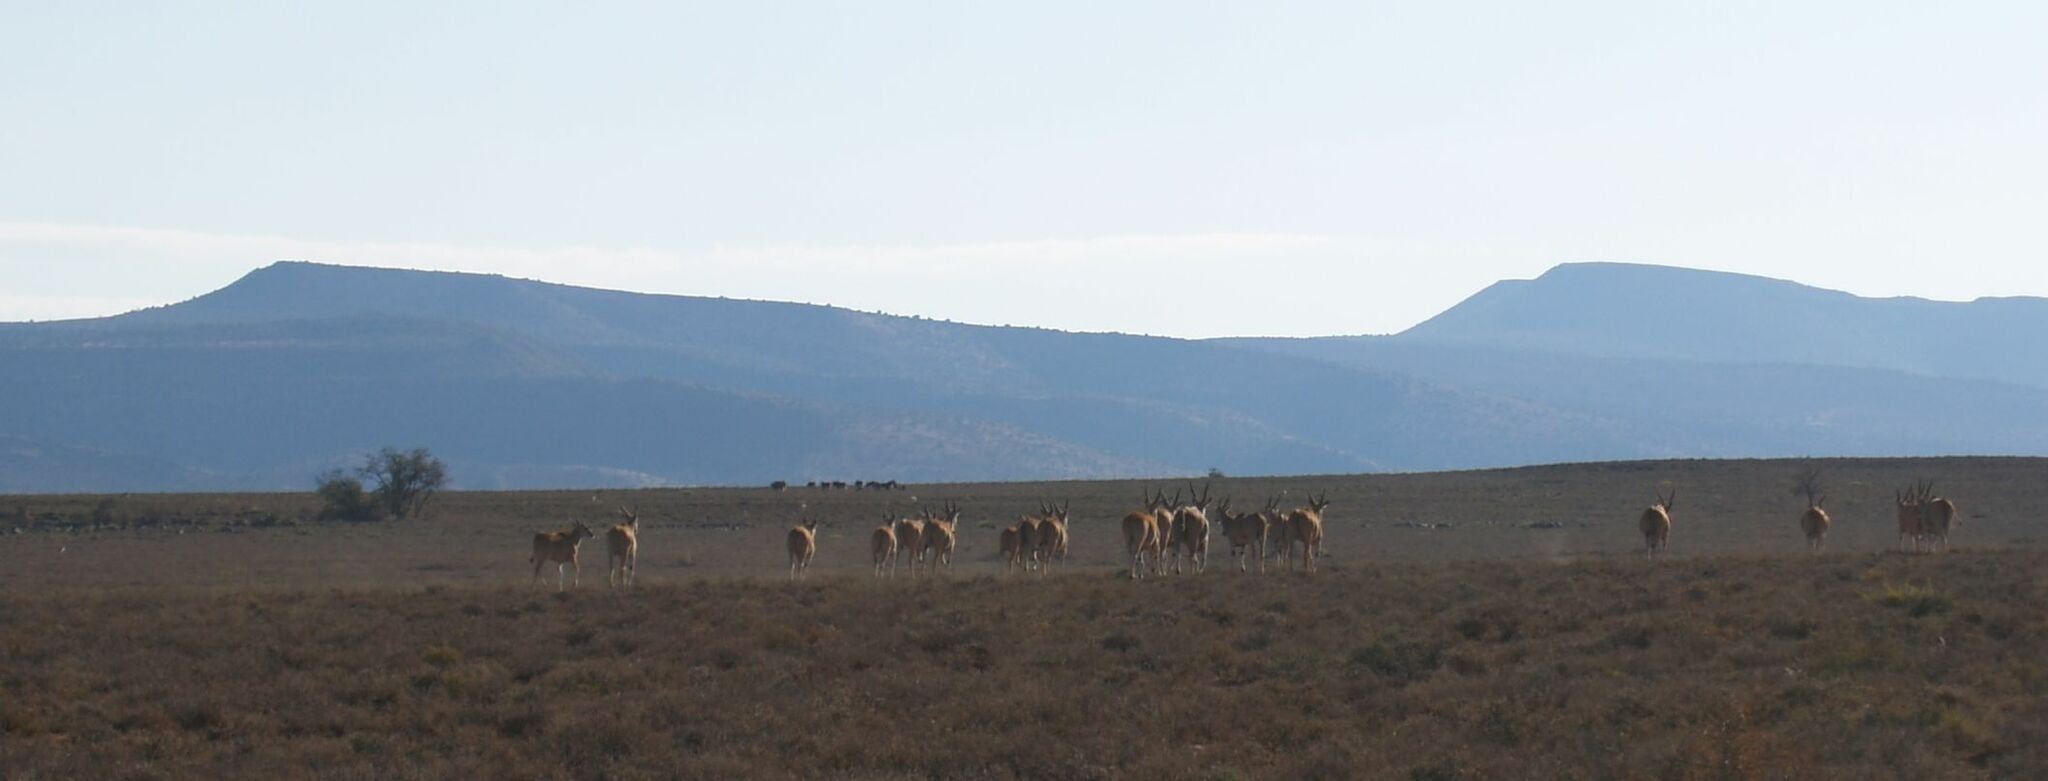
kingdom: Animalia
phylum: Chordata
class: Mammalia
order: Artiodactyla
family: Bovidae
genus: Taurotragus
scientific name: Taurotragus oryx
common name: Common eland
